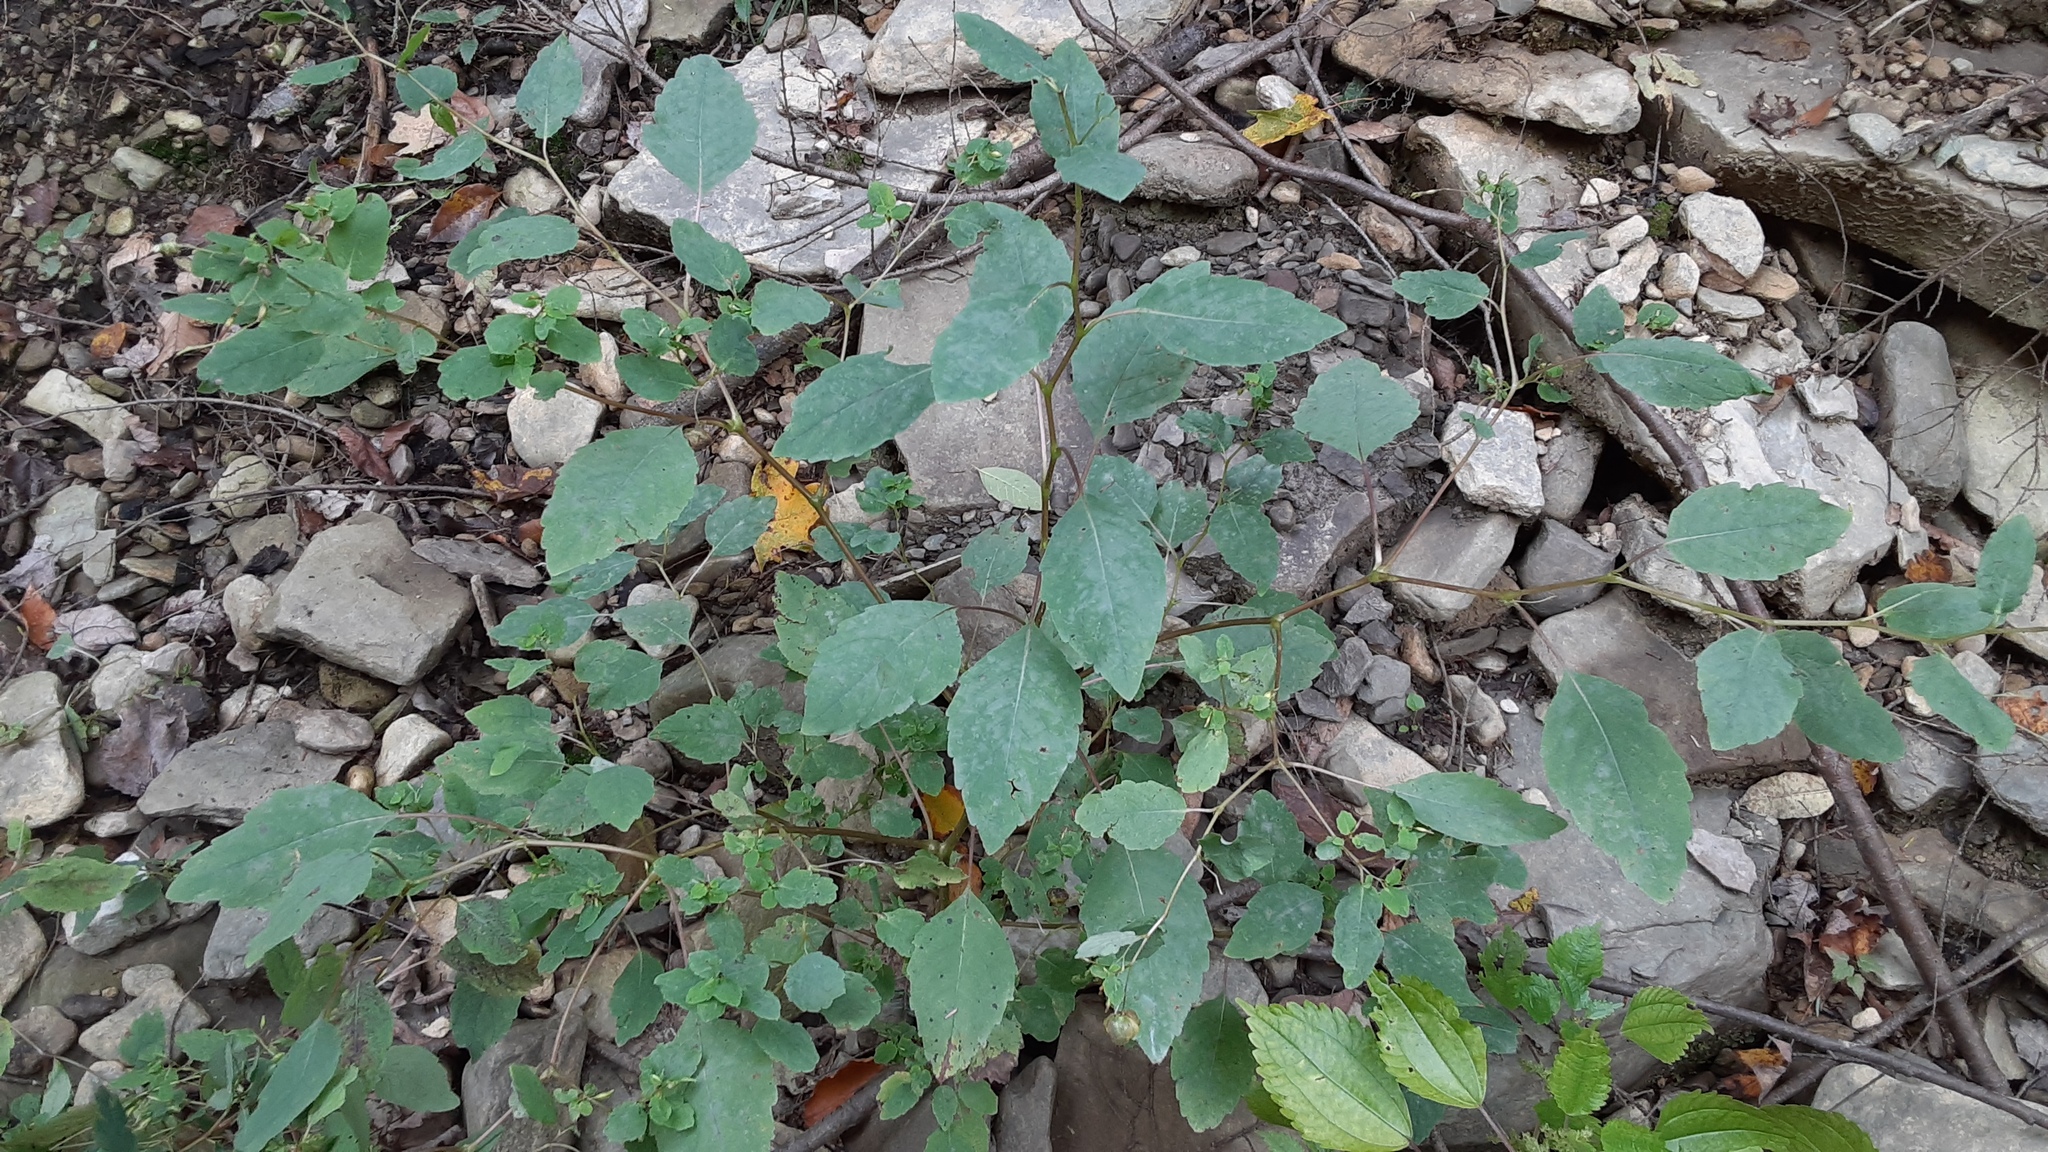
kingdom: Animalia
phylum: Arthropoda
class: Insecta
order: Diptera
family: Cecidomyiidae
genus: Schizomyia
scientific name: Schizomyia impatientis
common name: Jewelweed gall midge
